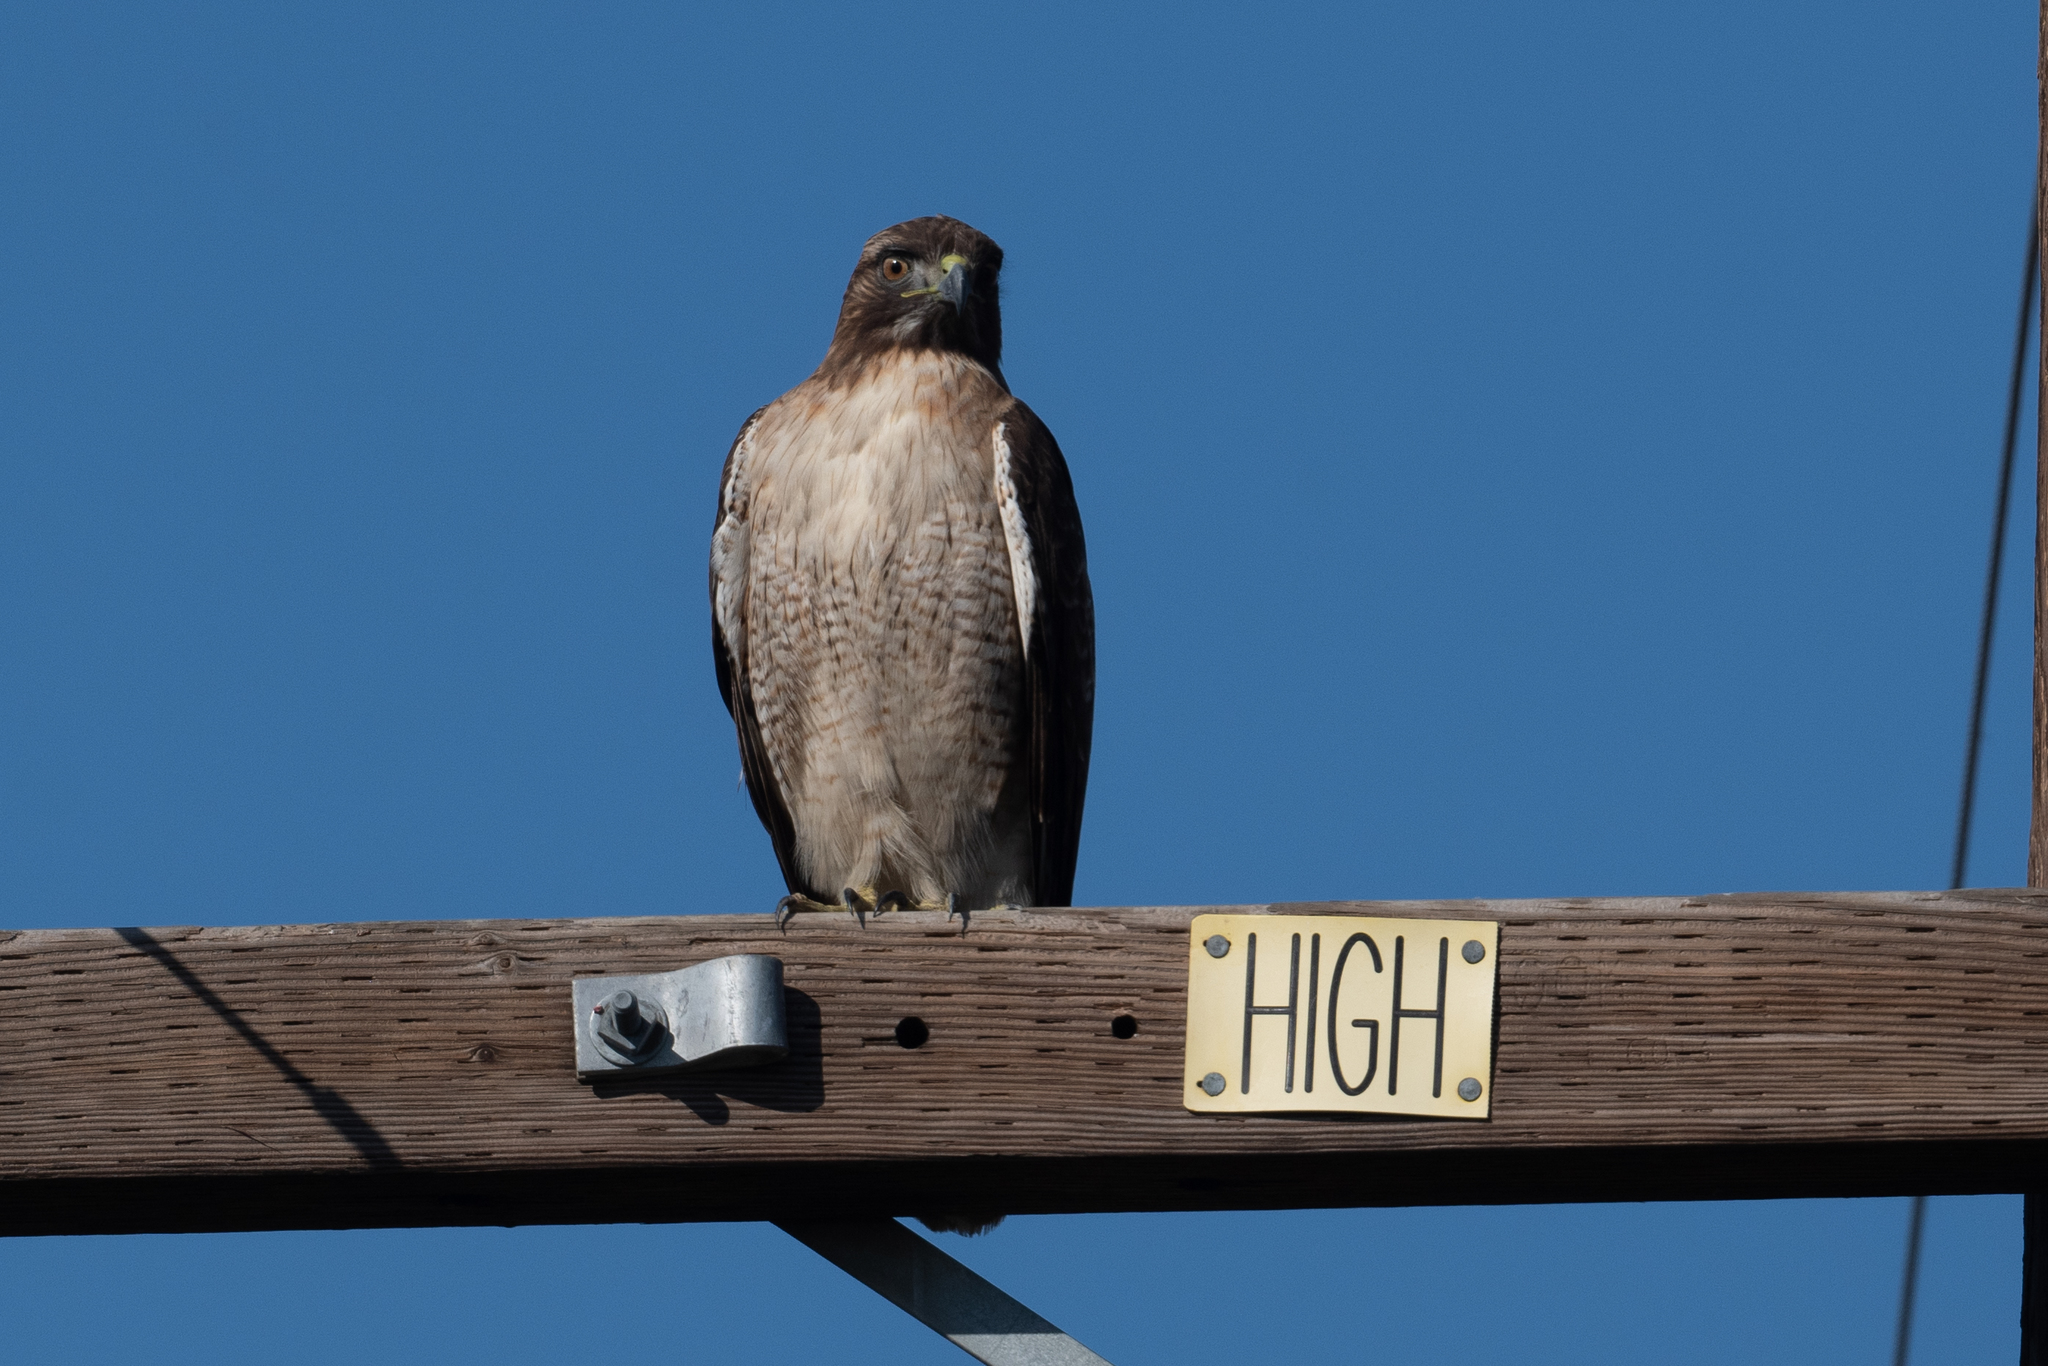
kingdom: Animalia
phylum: Chordata
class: Aves
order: Accipitriformes
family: Accipitridae
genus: Buteo
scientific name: Buteo jamaicensis
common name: Red-tailed hawk
